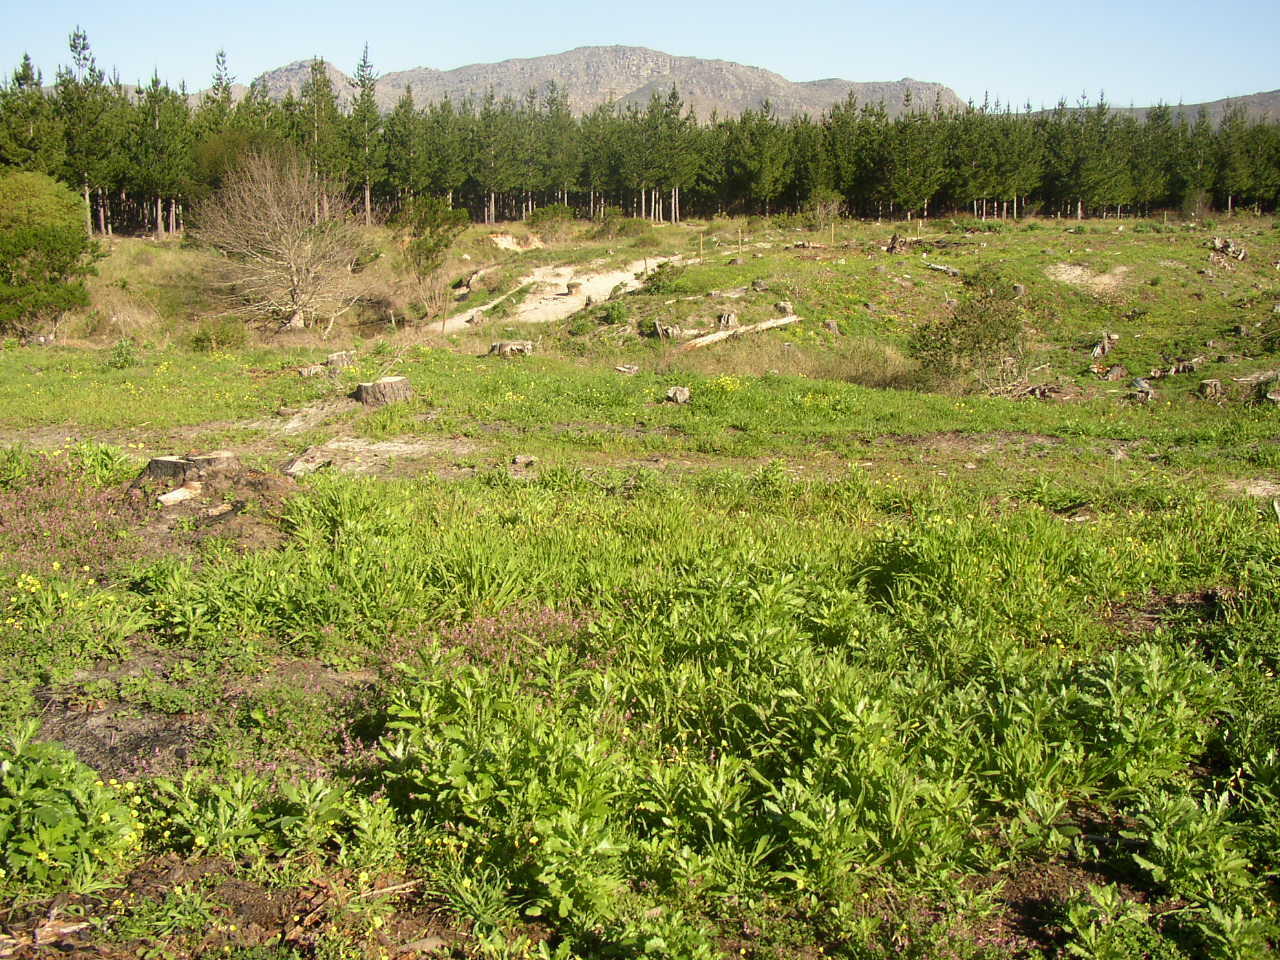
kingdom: Plantae
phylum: Tracheophyta
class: Magnoliopsida
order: Oxalidales
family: Oxalidaceae
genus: Oxalis
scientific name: Oxalis pes-caprae
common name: Bermuda-buttercup
